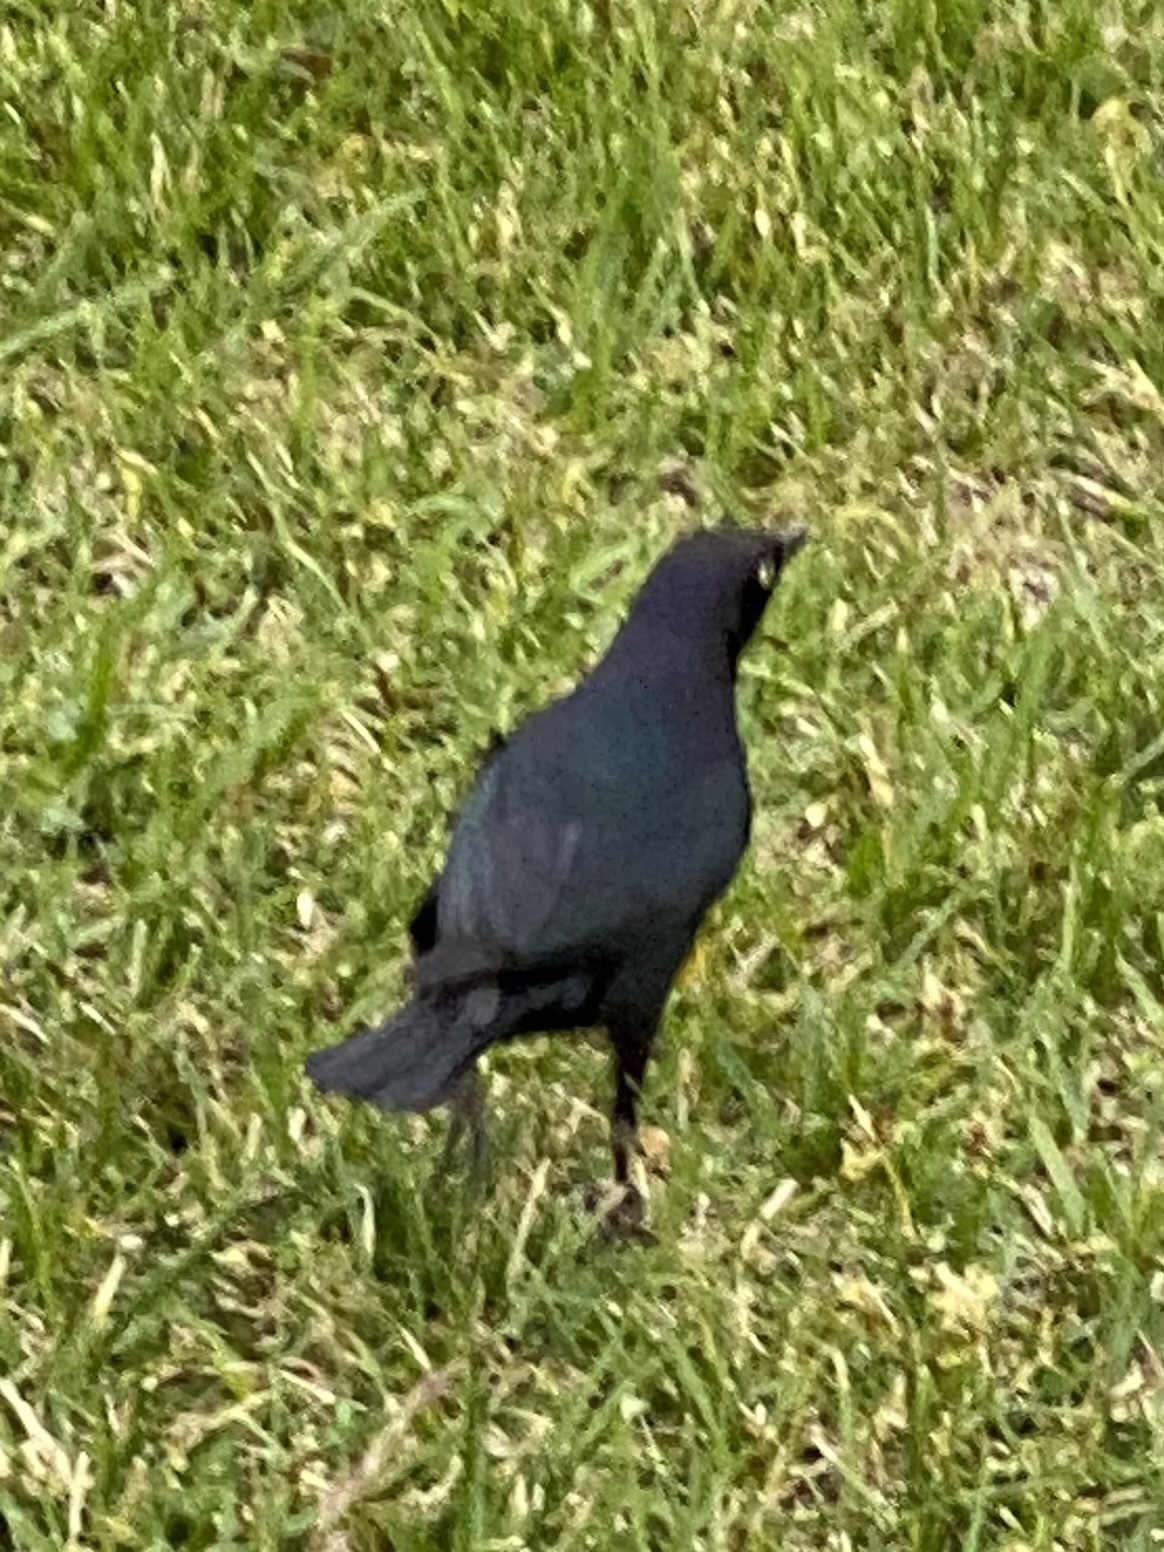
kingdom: Animalia
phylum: Chordata
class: Aves
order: Passeriformes
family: Icteridae
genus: Euphagus
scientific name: Euphagus cyanocephalus
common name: Brewer's blackbird
